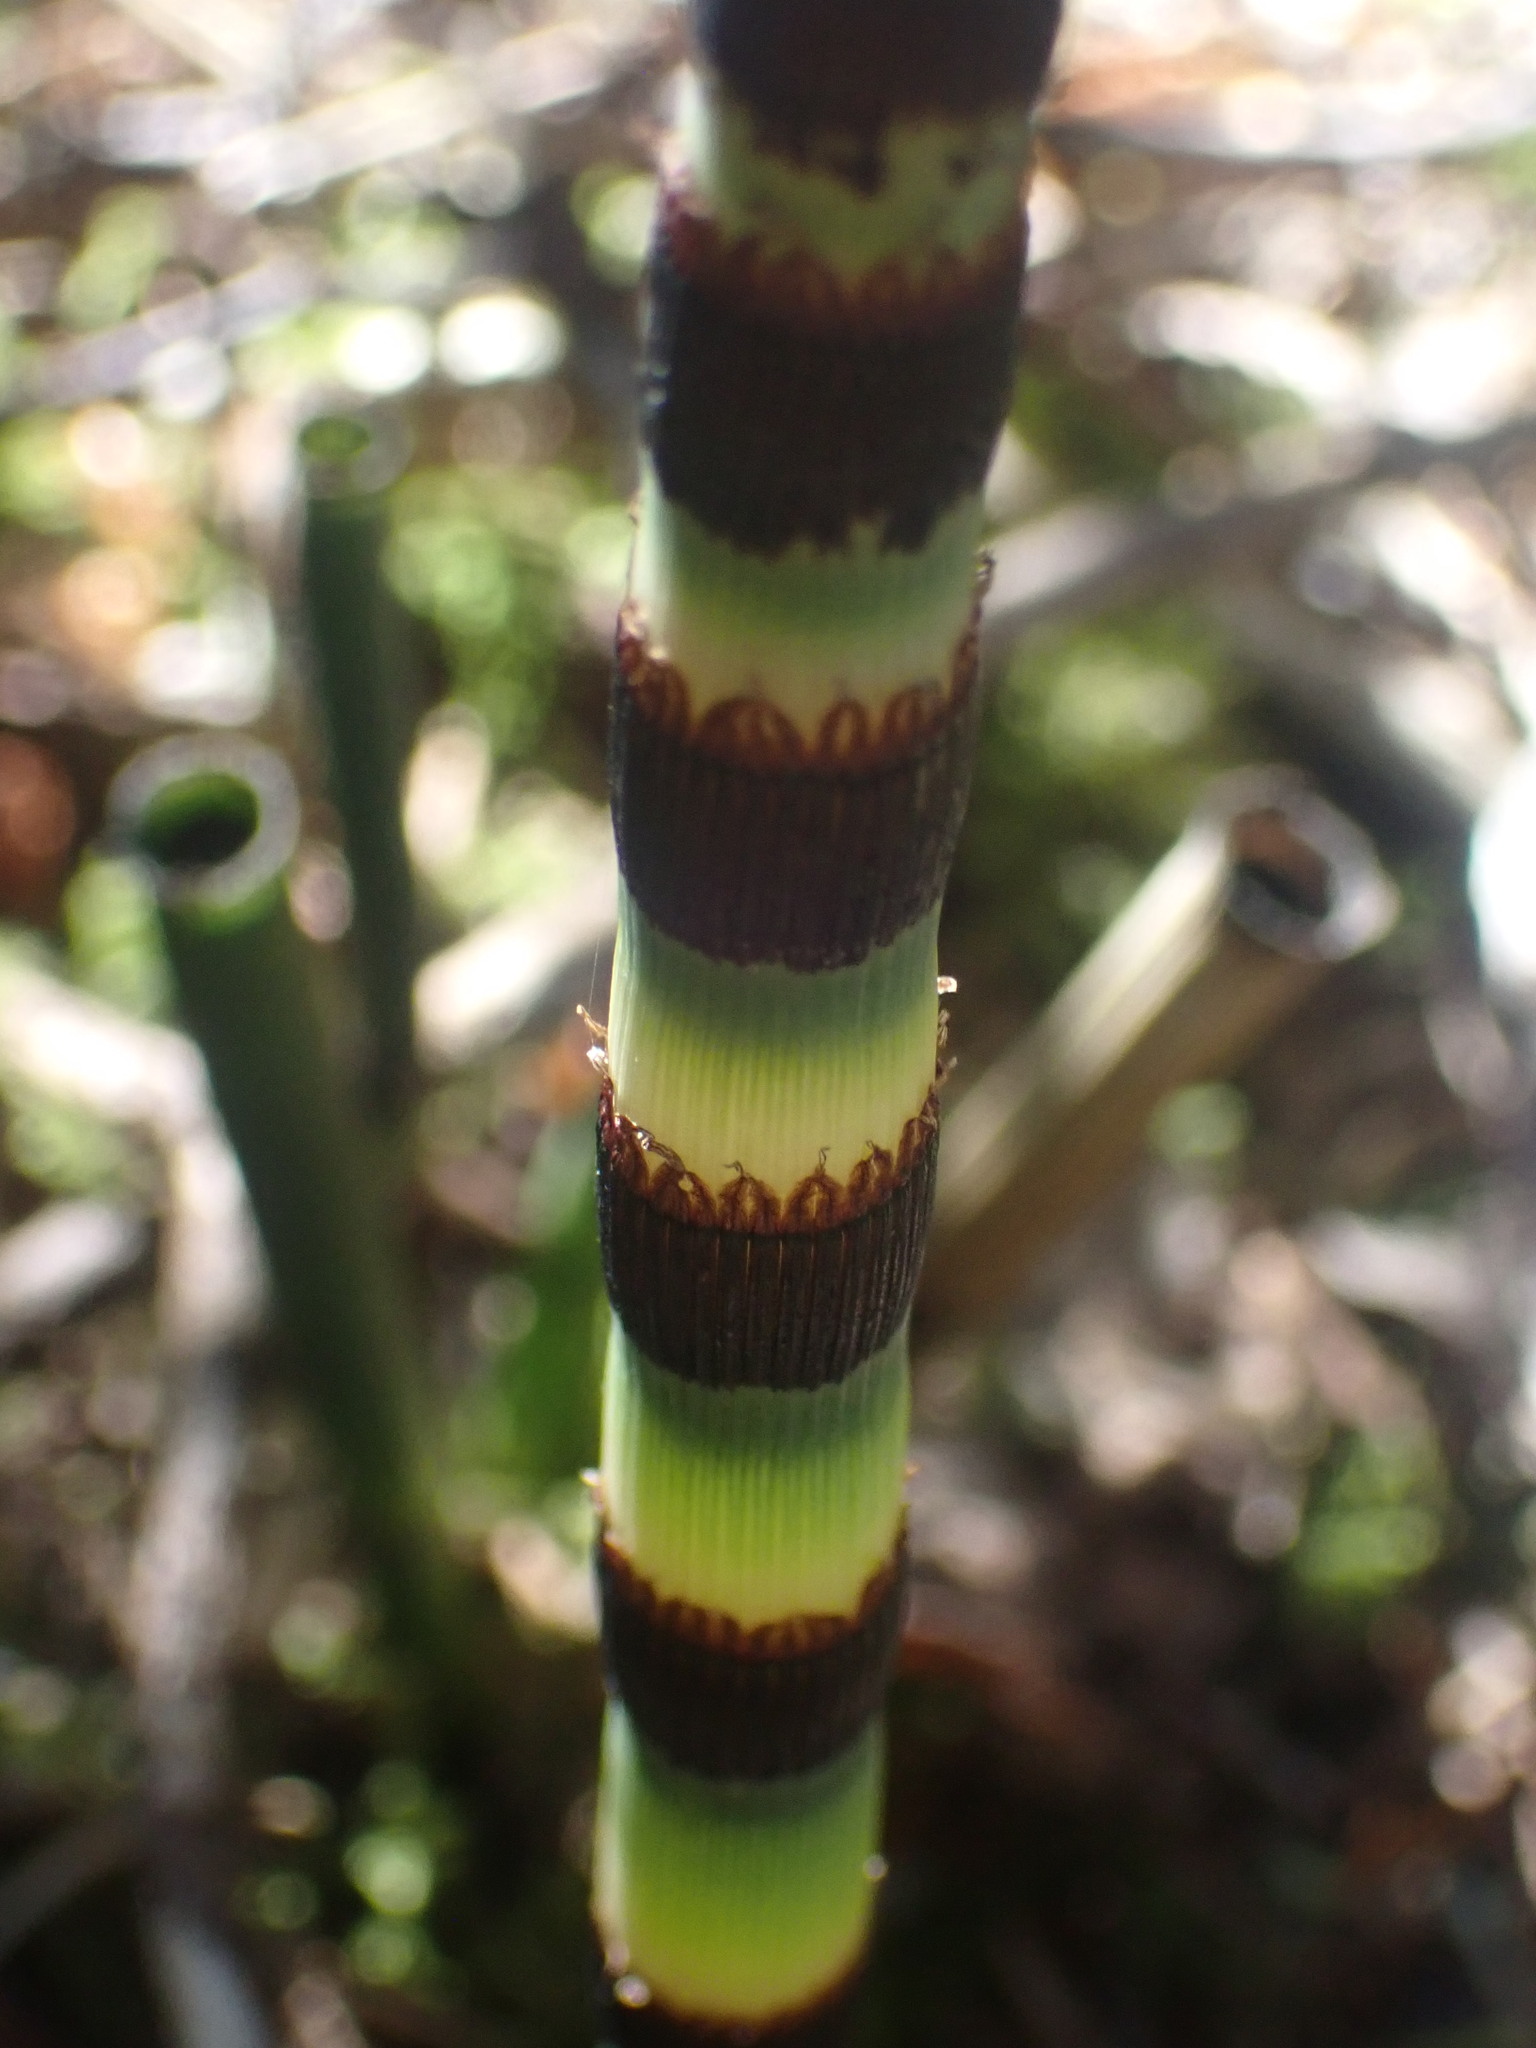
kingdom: Plantae
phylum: Tracheophyta
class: Polypodiopsida
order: Equisetales
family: Equisetaceae
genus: Equisetum
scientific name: Equisetum praealtum
